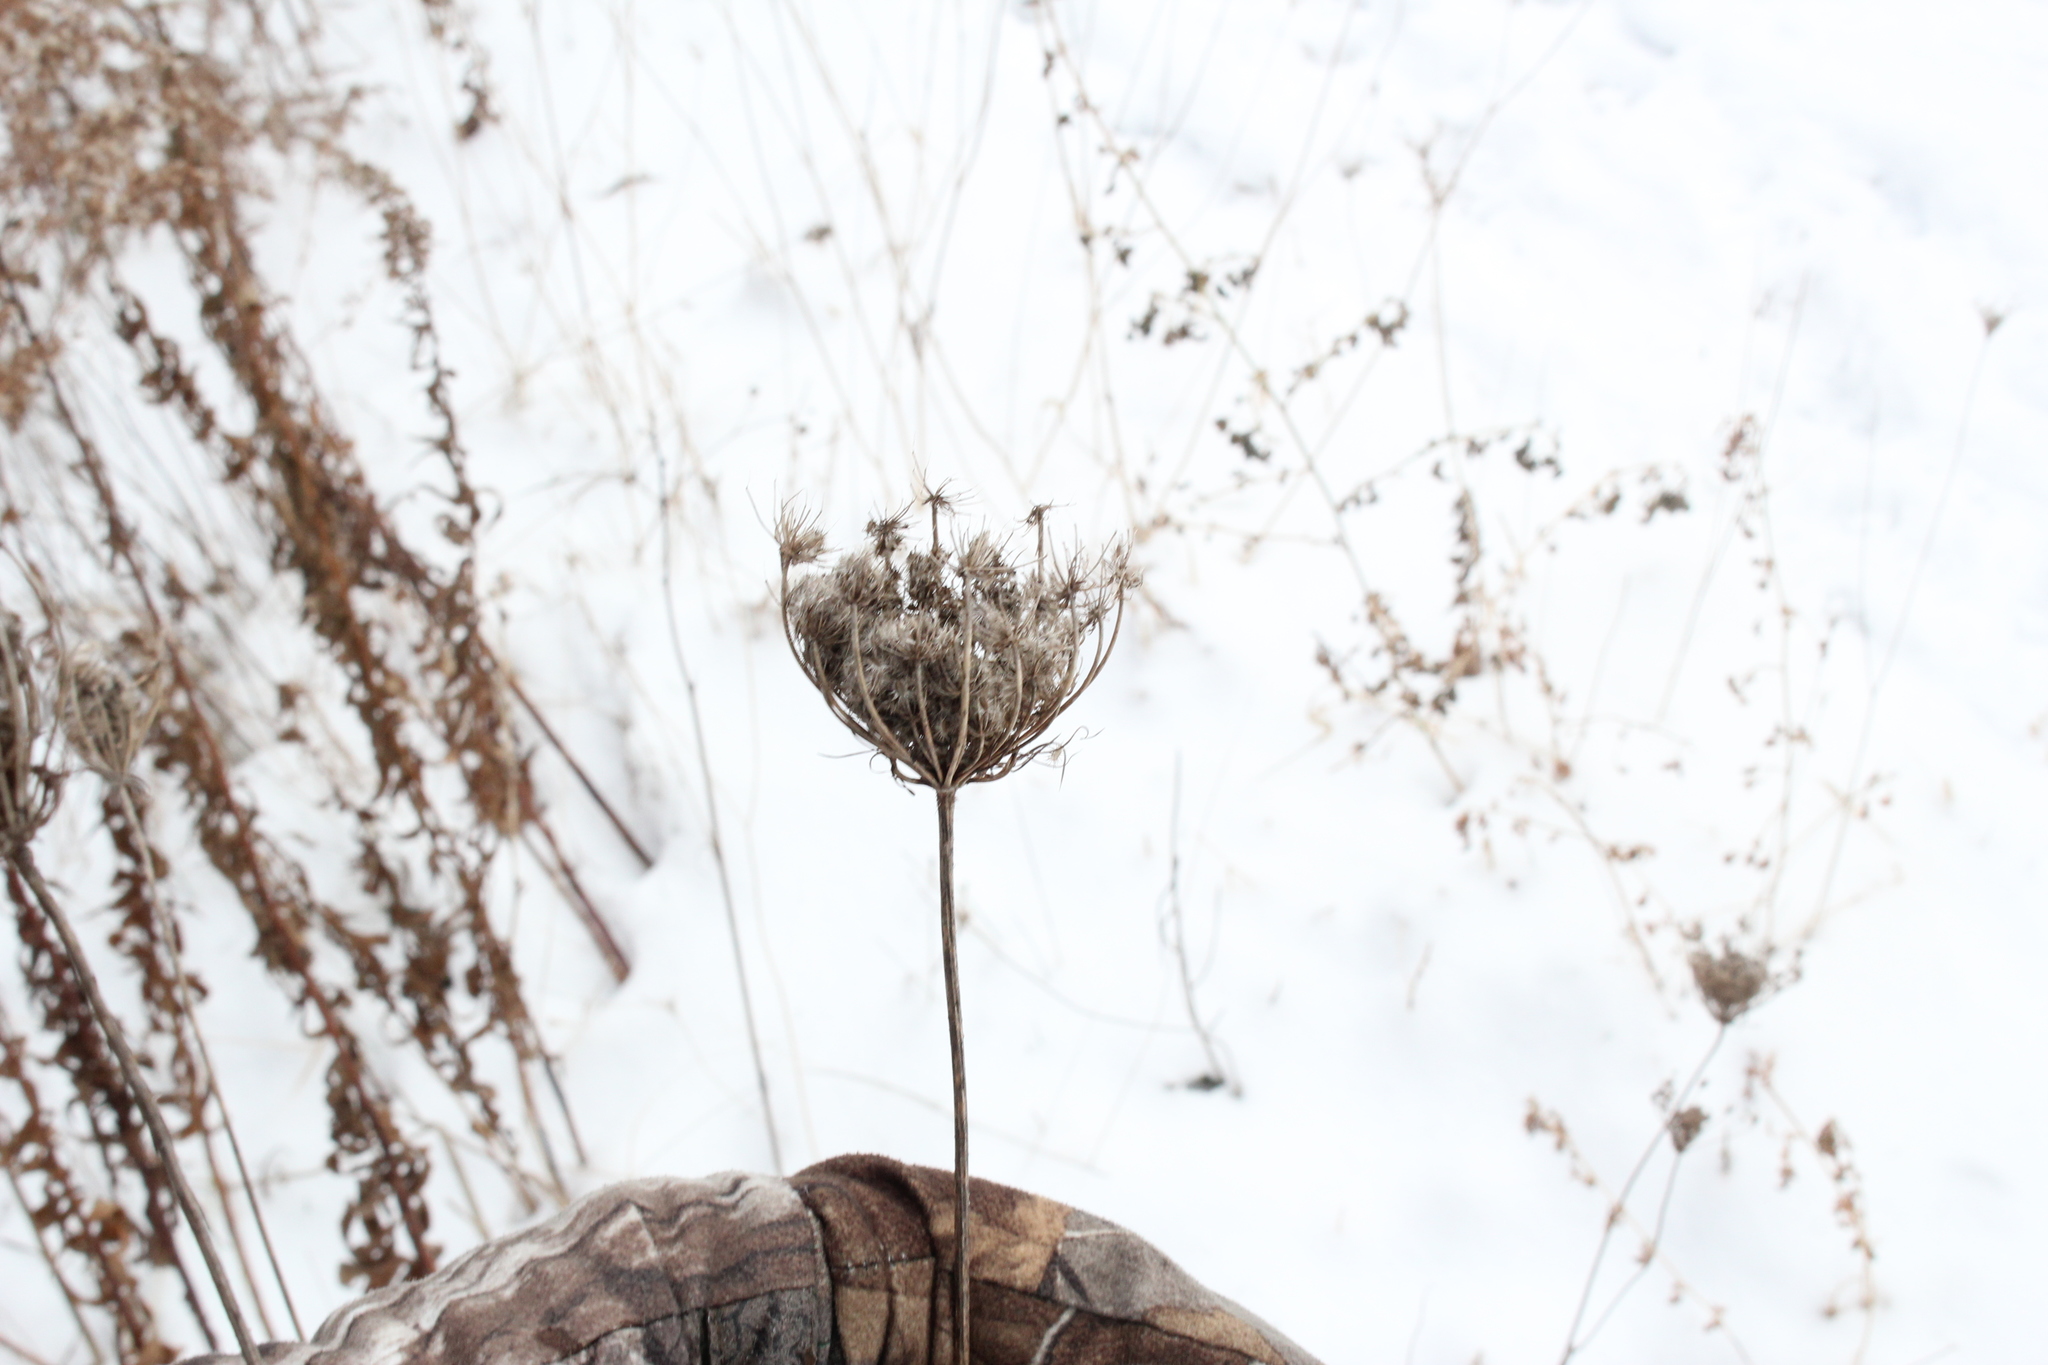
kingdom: Plantae
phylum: Tracheophyta
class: Magnoliopsida
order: Apiales
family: Apiaceae
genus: Daucus
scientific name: Daucus carota
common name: Wild carrot
